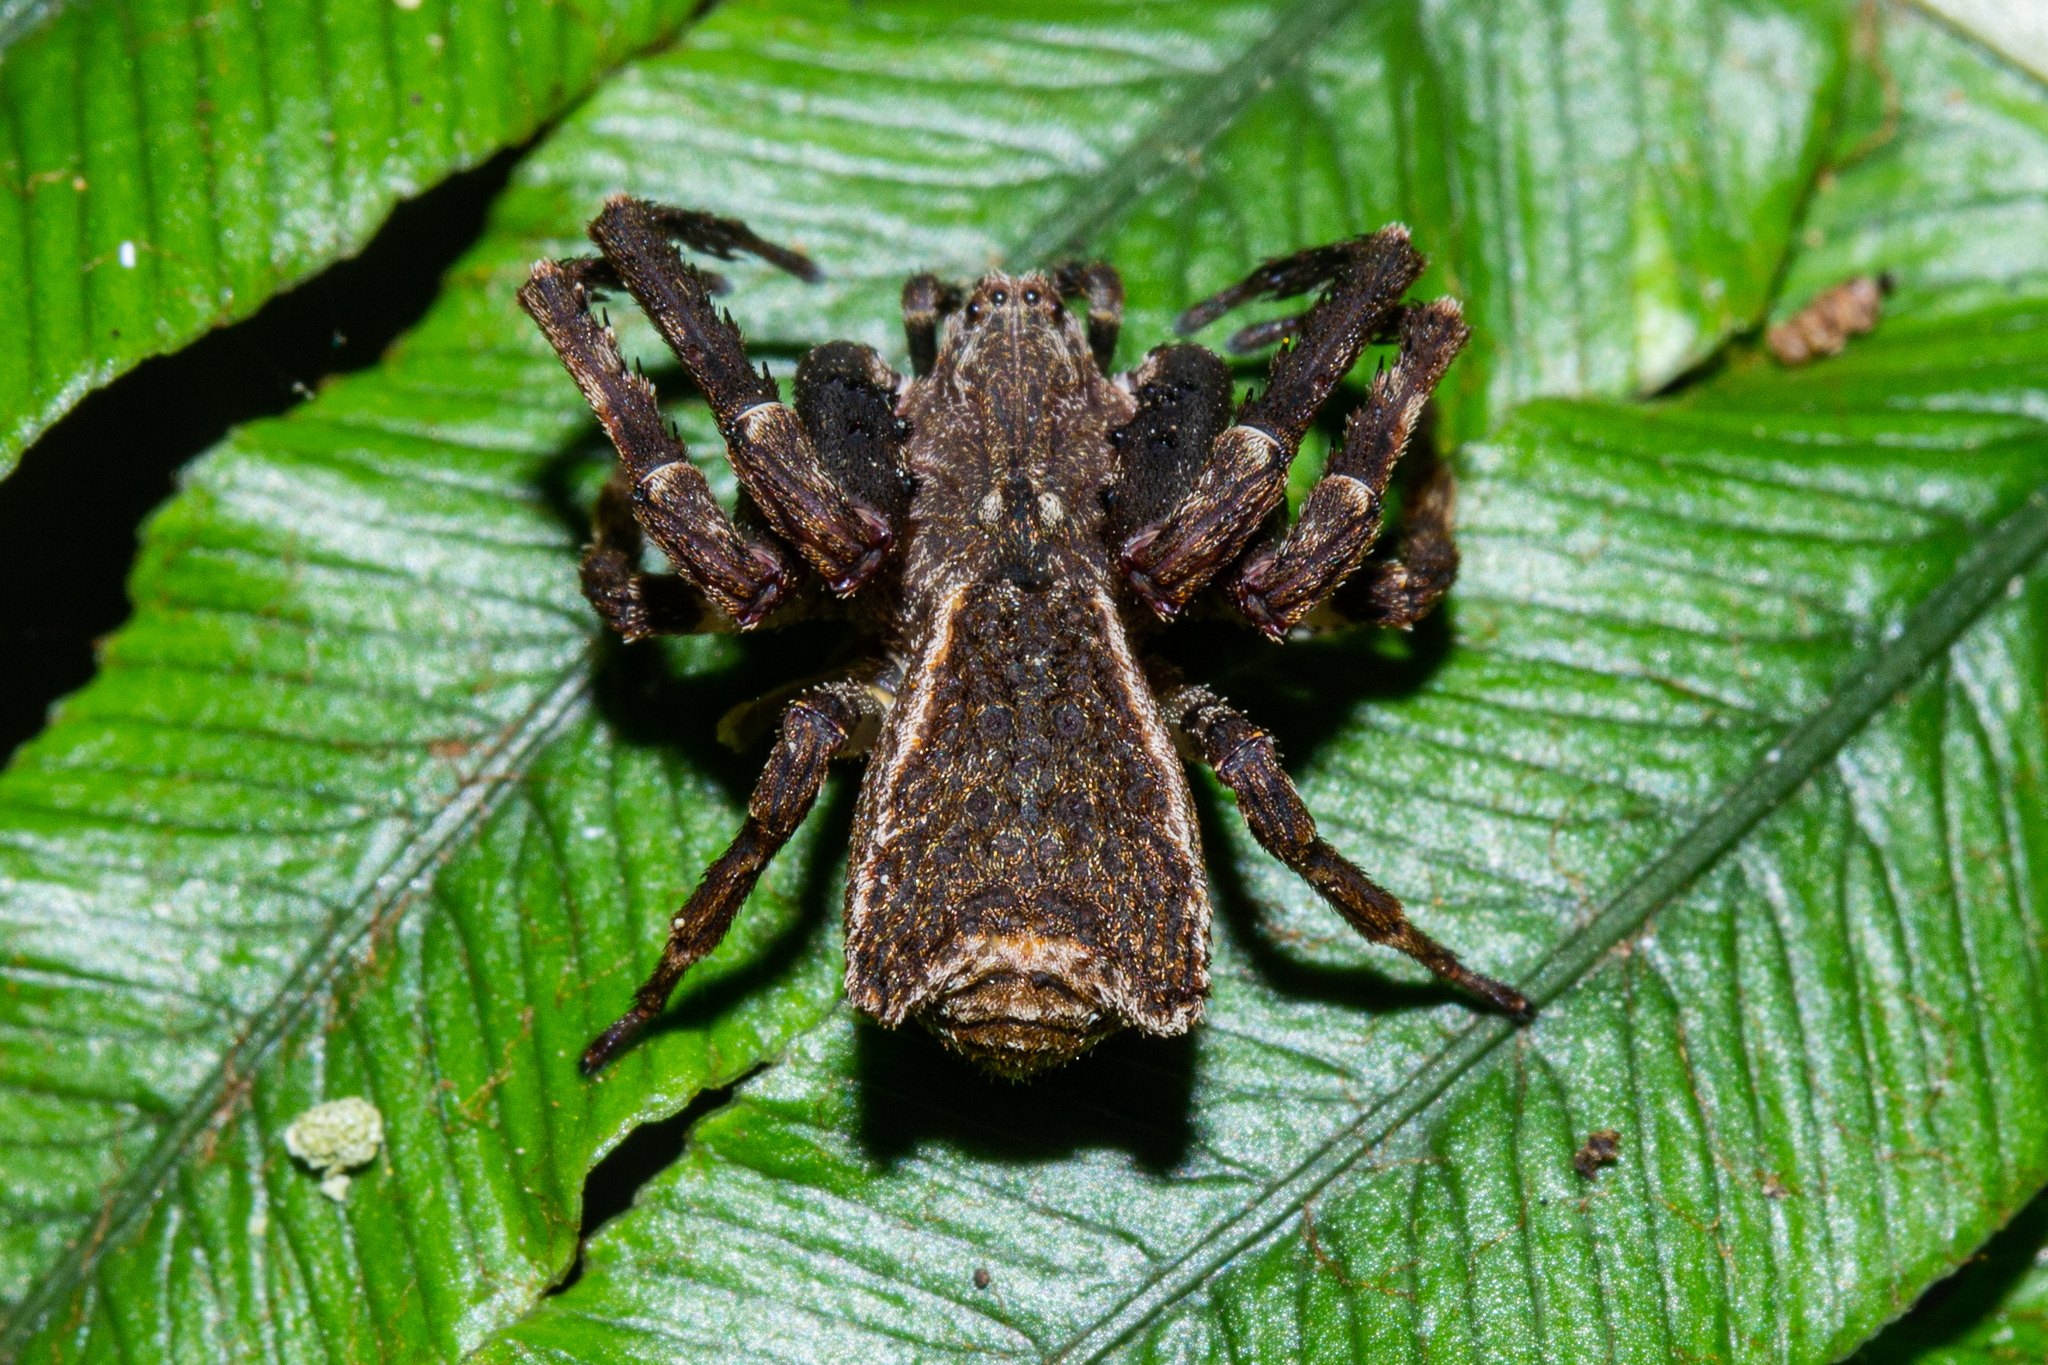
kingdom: Animalia
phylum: Arthropoda
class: Arachnida
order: Araneae
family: Thomisidae
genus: Sidymella
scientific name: Sidymella angularis
